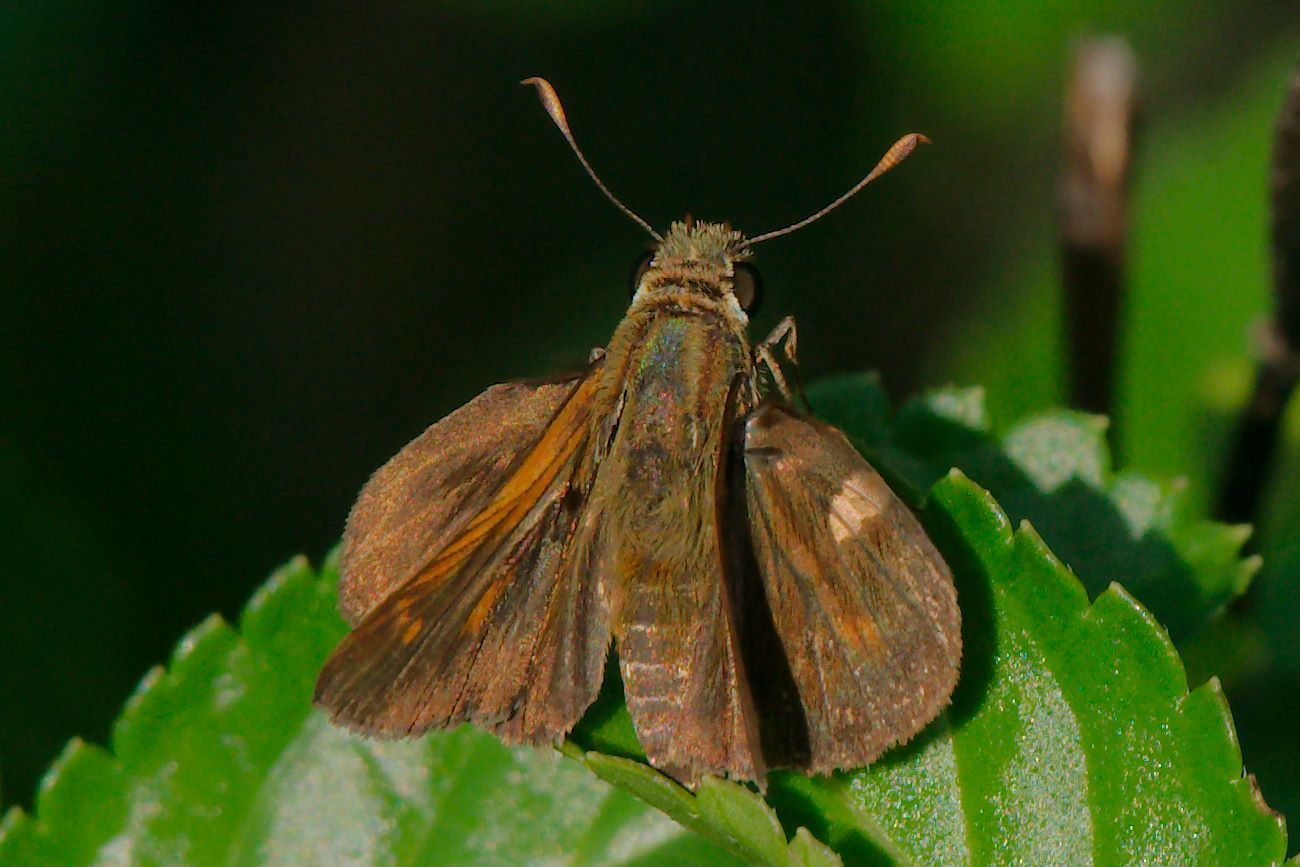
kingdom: Animalia
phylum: Arthropoda
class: Insecta
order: Lepidoptera
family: Hesperiidae
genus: Polites
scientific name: Polites otho
